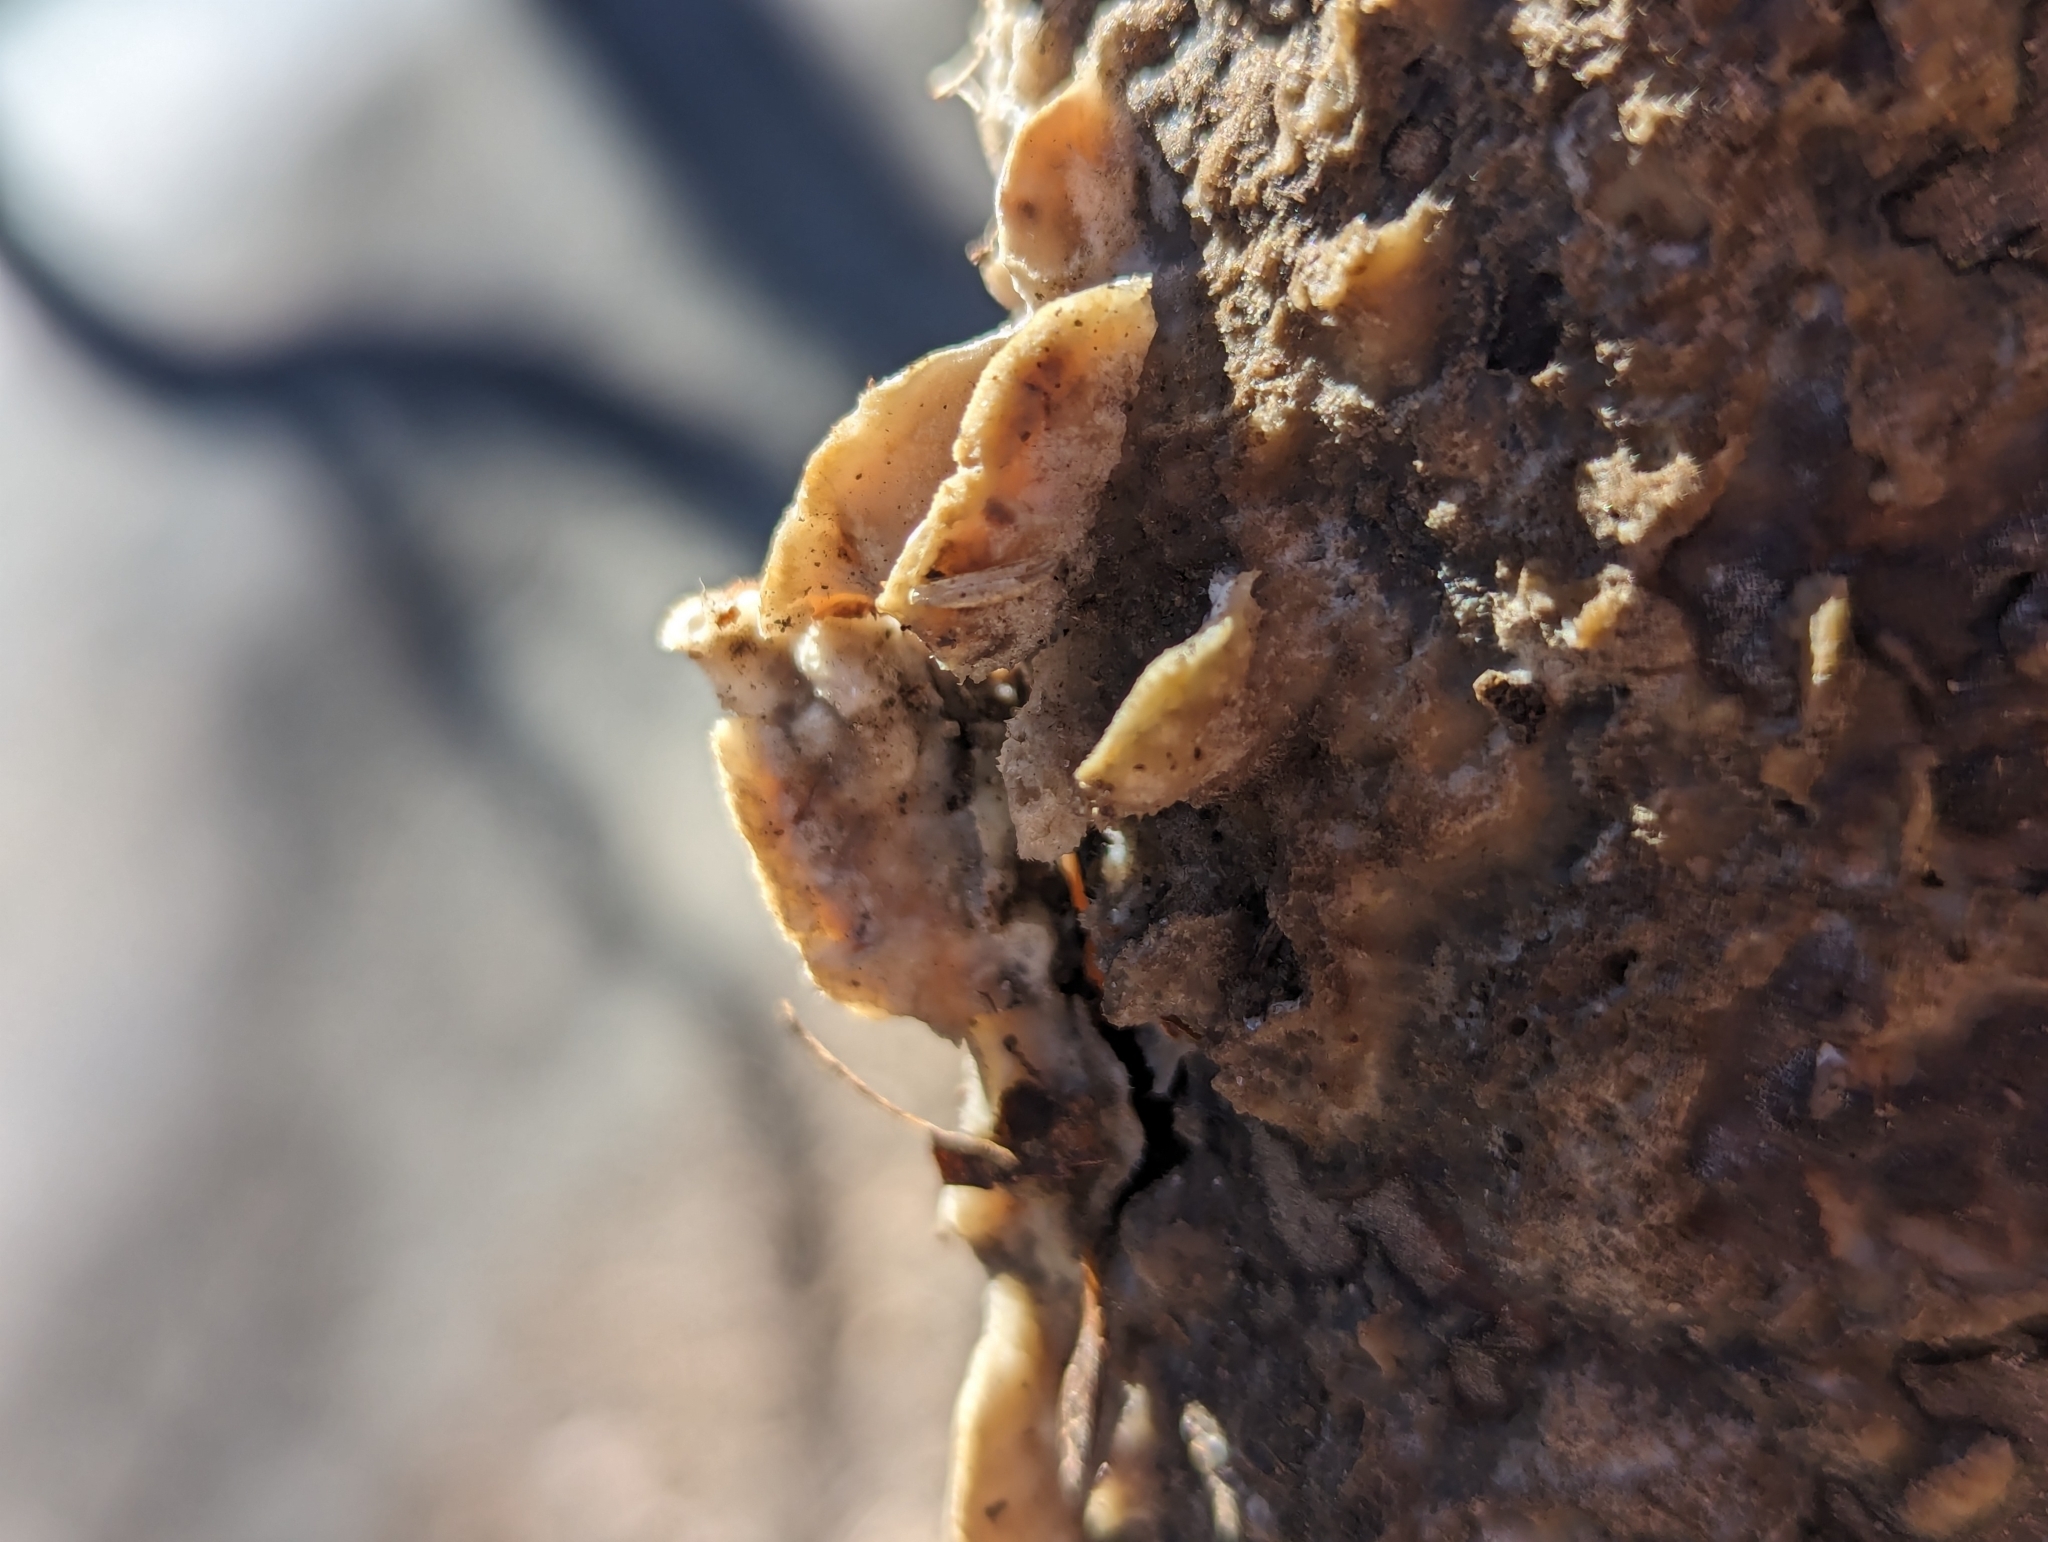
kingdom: Fungi
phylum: Basidiomycota
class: Agaricomycetes
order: Polyporales
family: Irpicaceae
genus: Vitreoporus
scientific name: Vitreoporus dichrous
